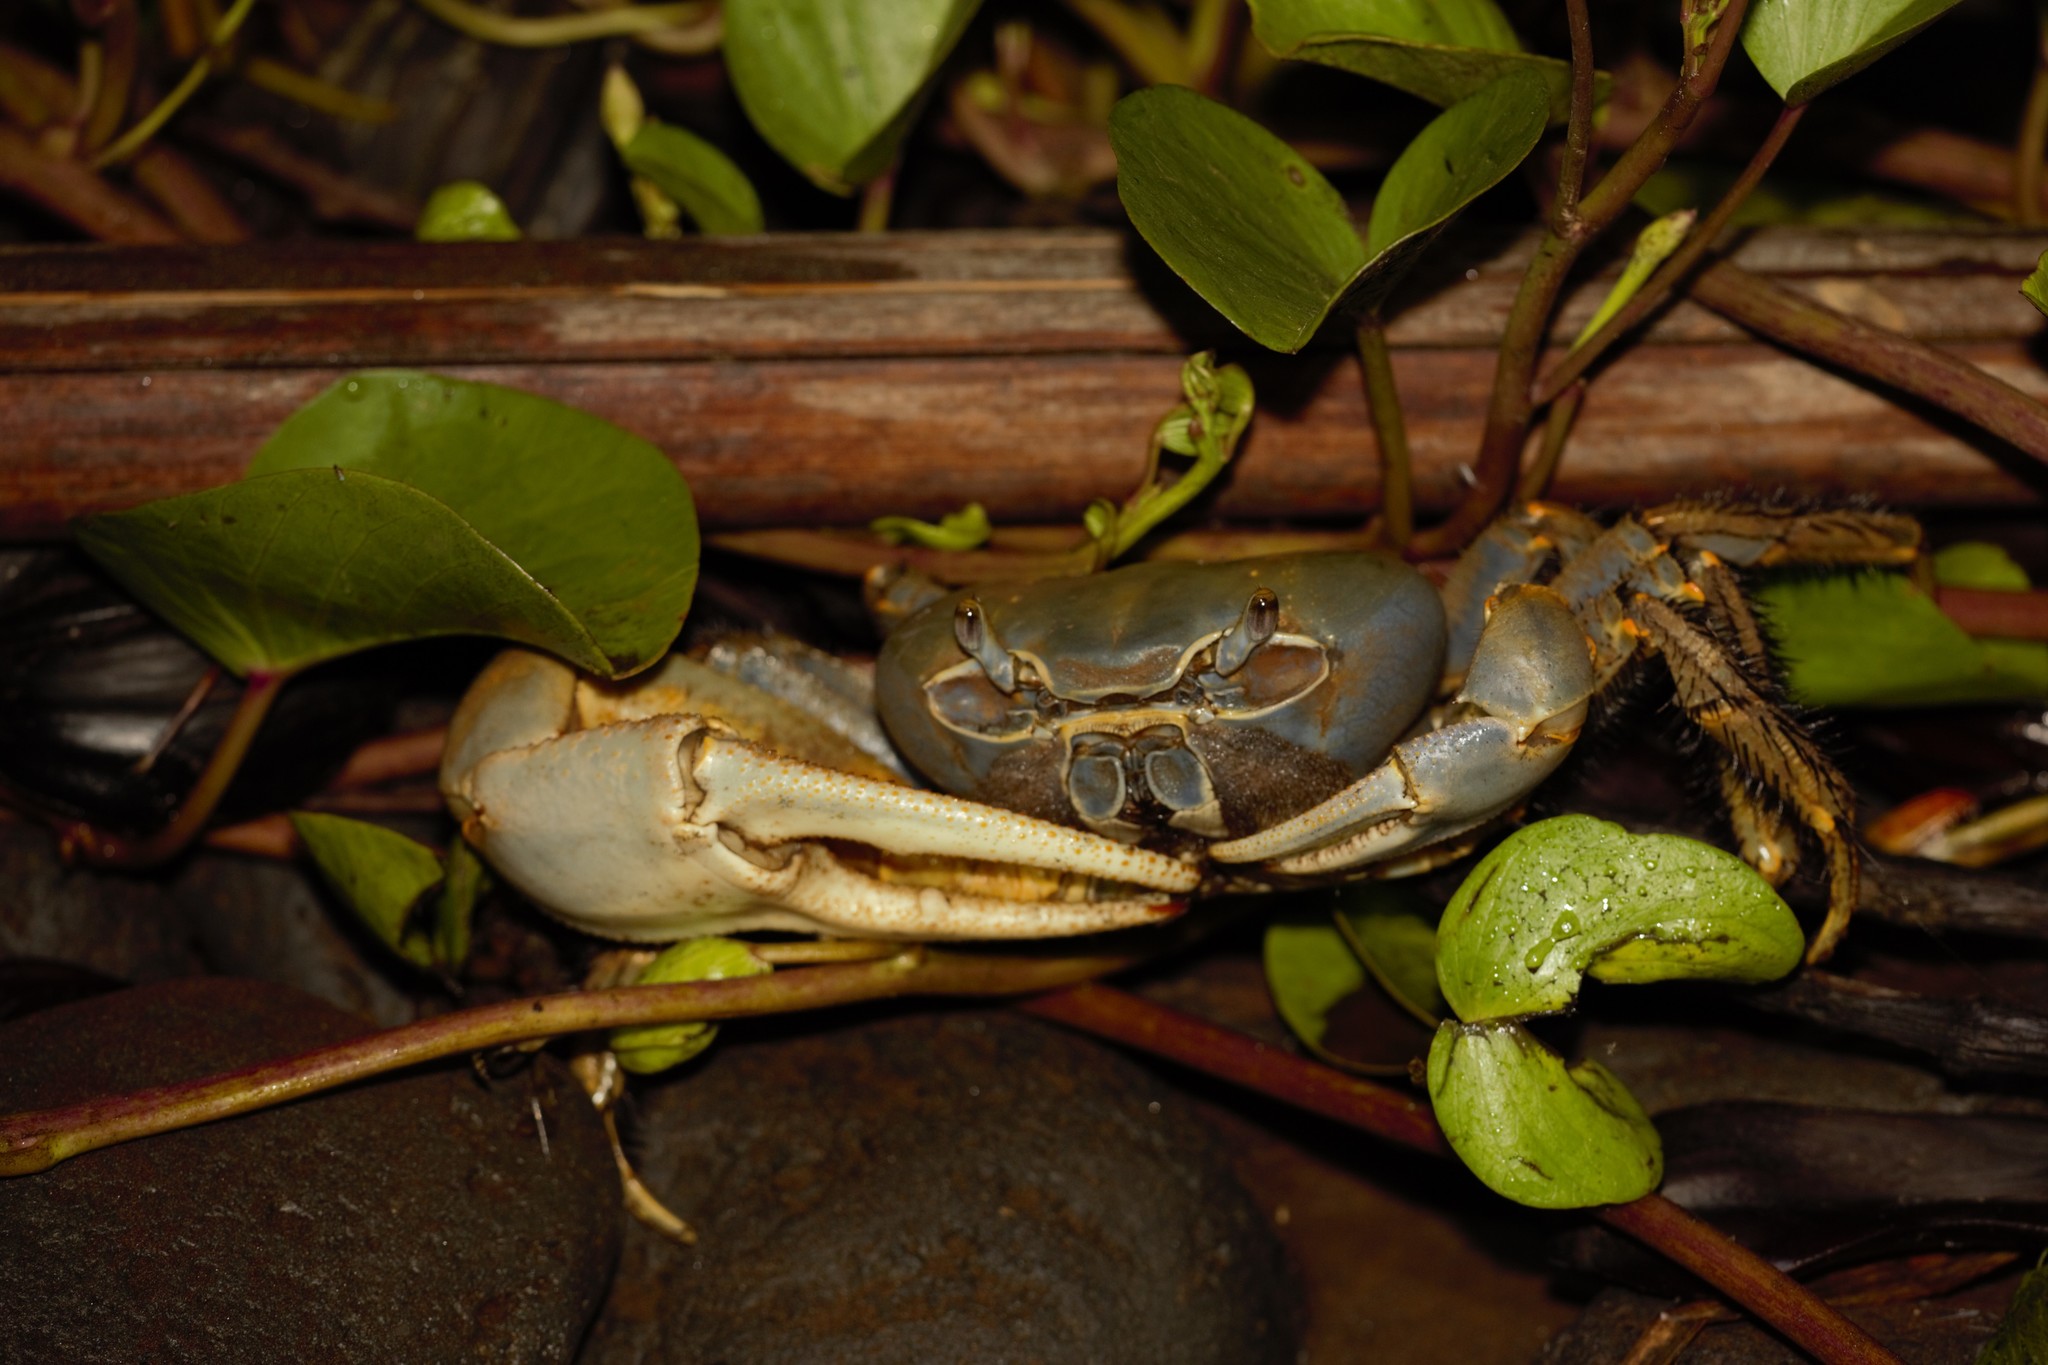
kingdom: Animalia
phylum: Arthropoda
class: Malacostraca
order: Decapoda
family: Gecarcinidae
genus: Cardisoma
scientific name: Cardisoma armatum
